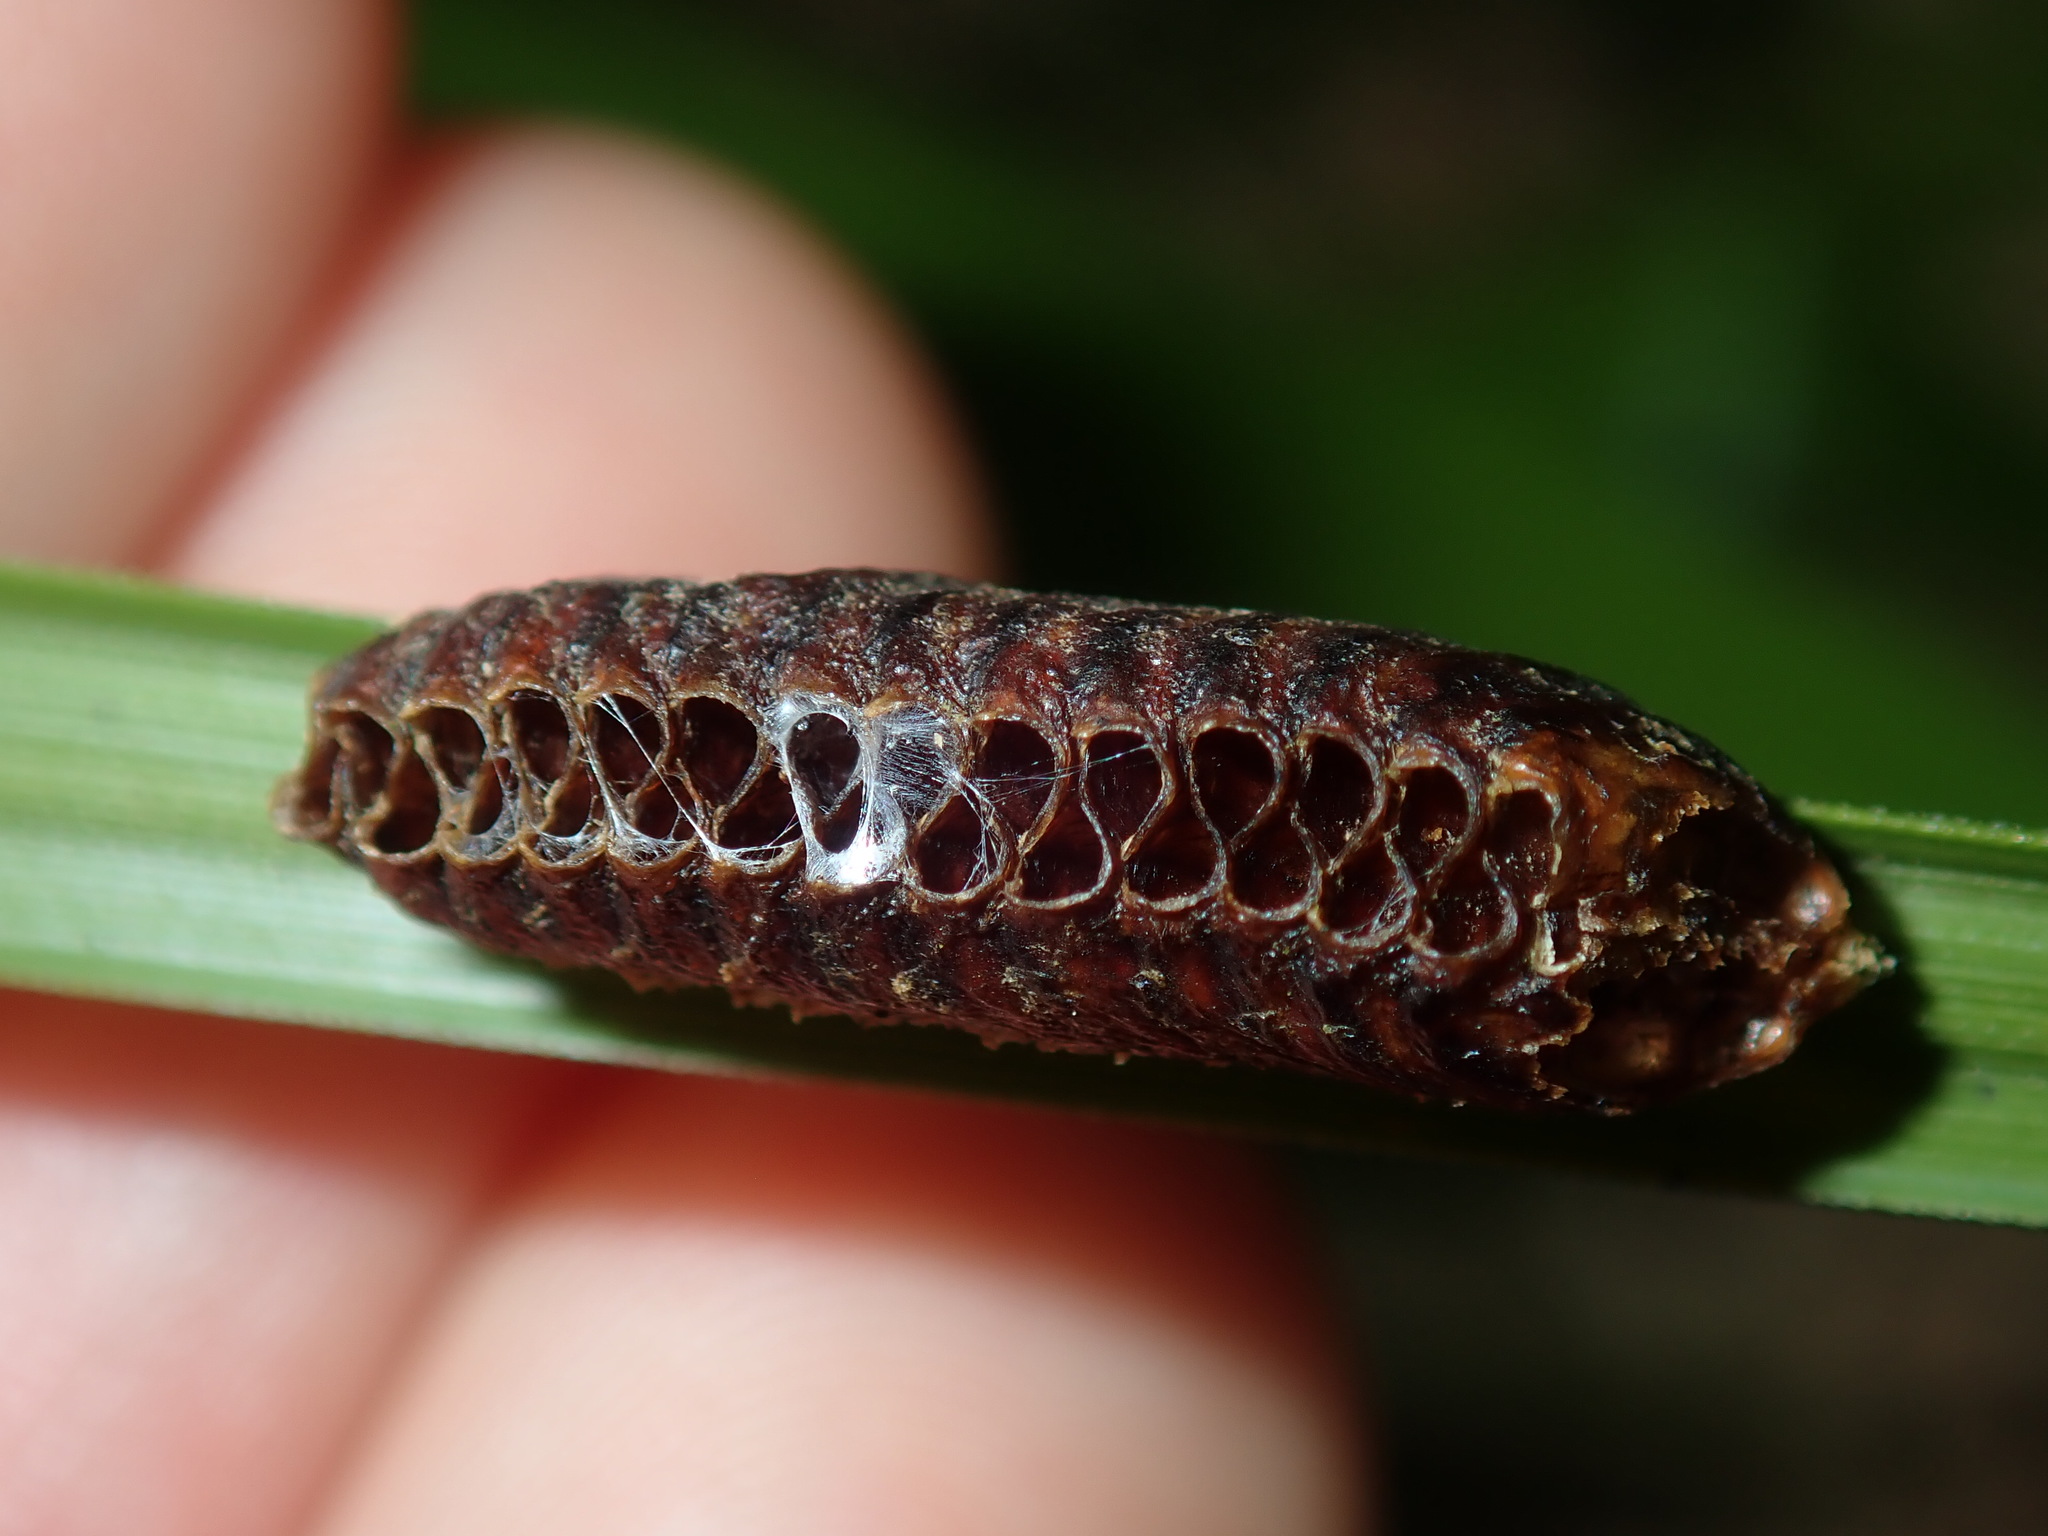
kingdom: Animalia
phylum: Arthropoda
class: Insecta
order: Mantodea
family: Mantidae
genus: Orthodera
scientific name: Orthodera ministralis
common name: Mantis
